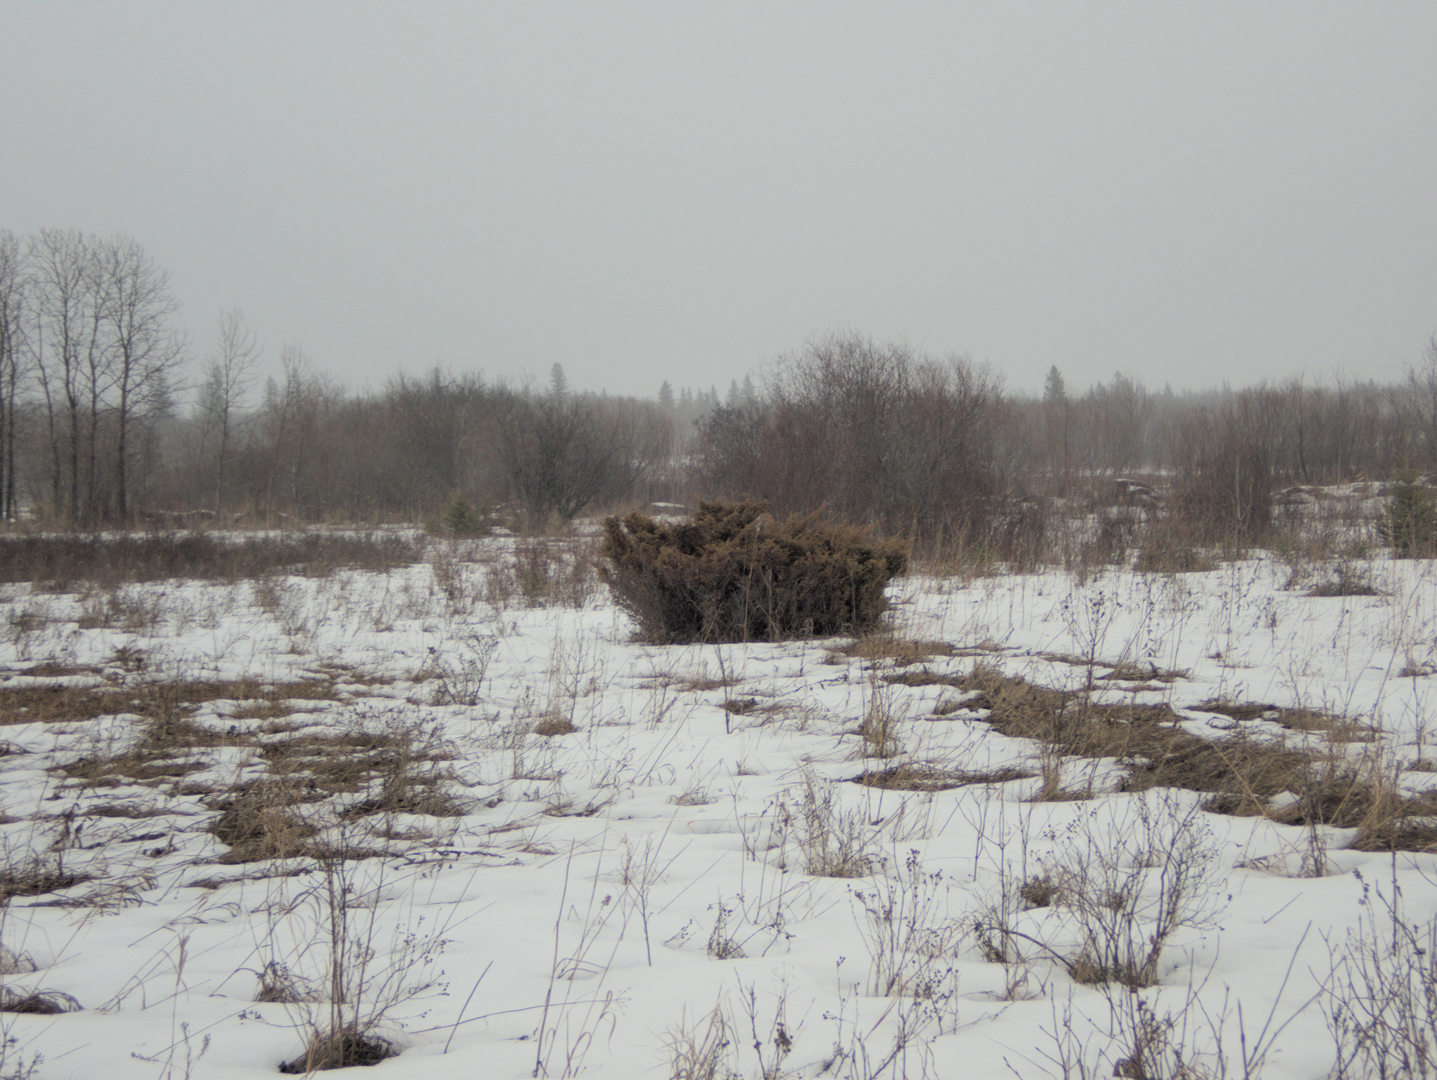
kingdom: Plantae
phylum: Tracheophyta
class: Pinopsida
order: Pinales
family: Cupressaceae
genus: Juniperus
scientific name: Juniperus communis
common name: Common juniper
